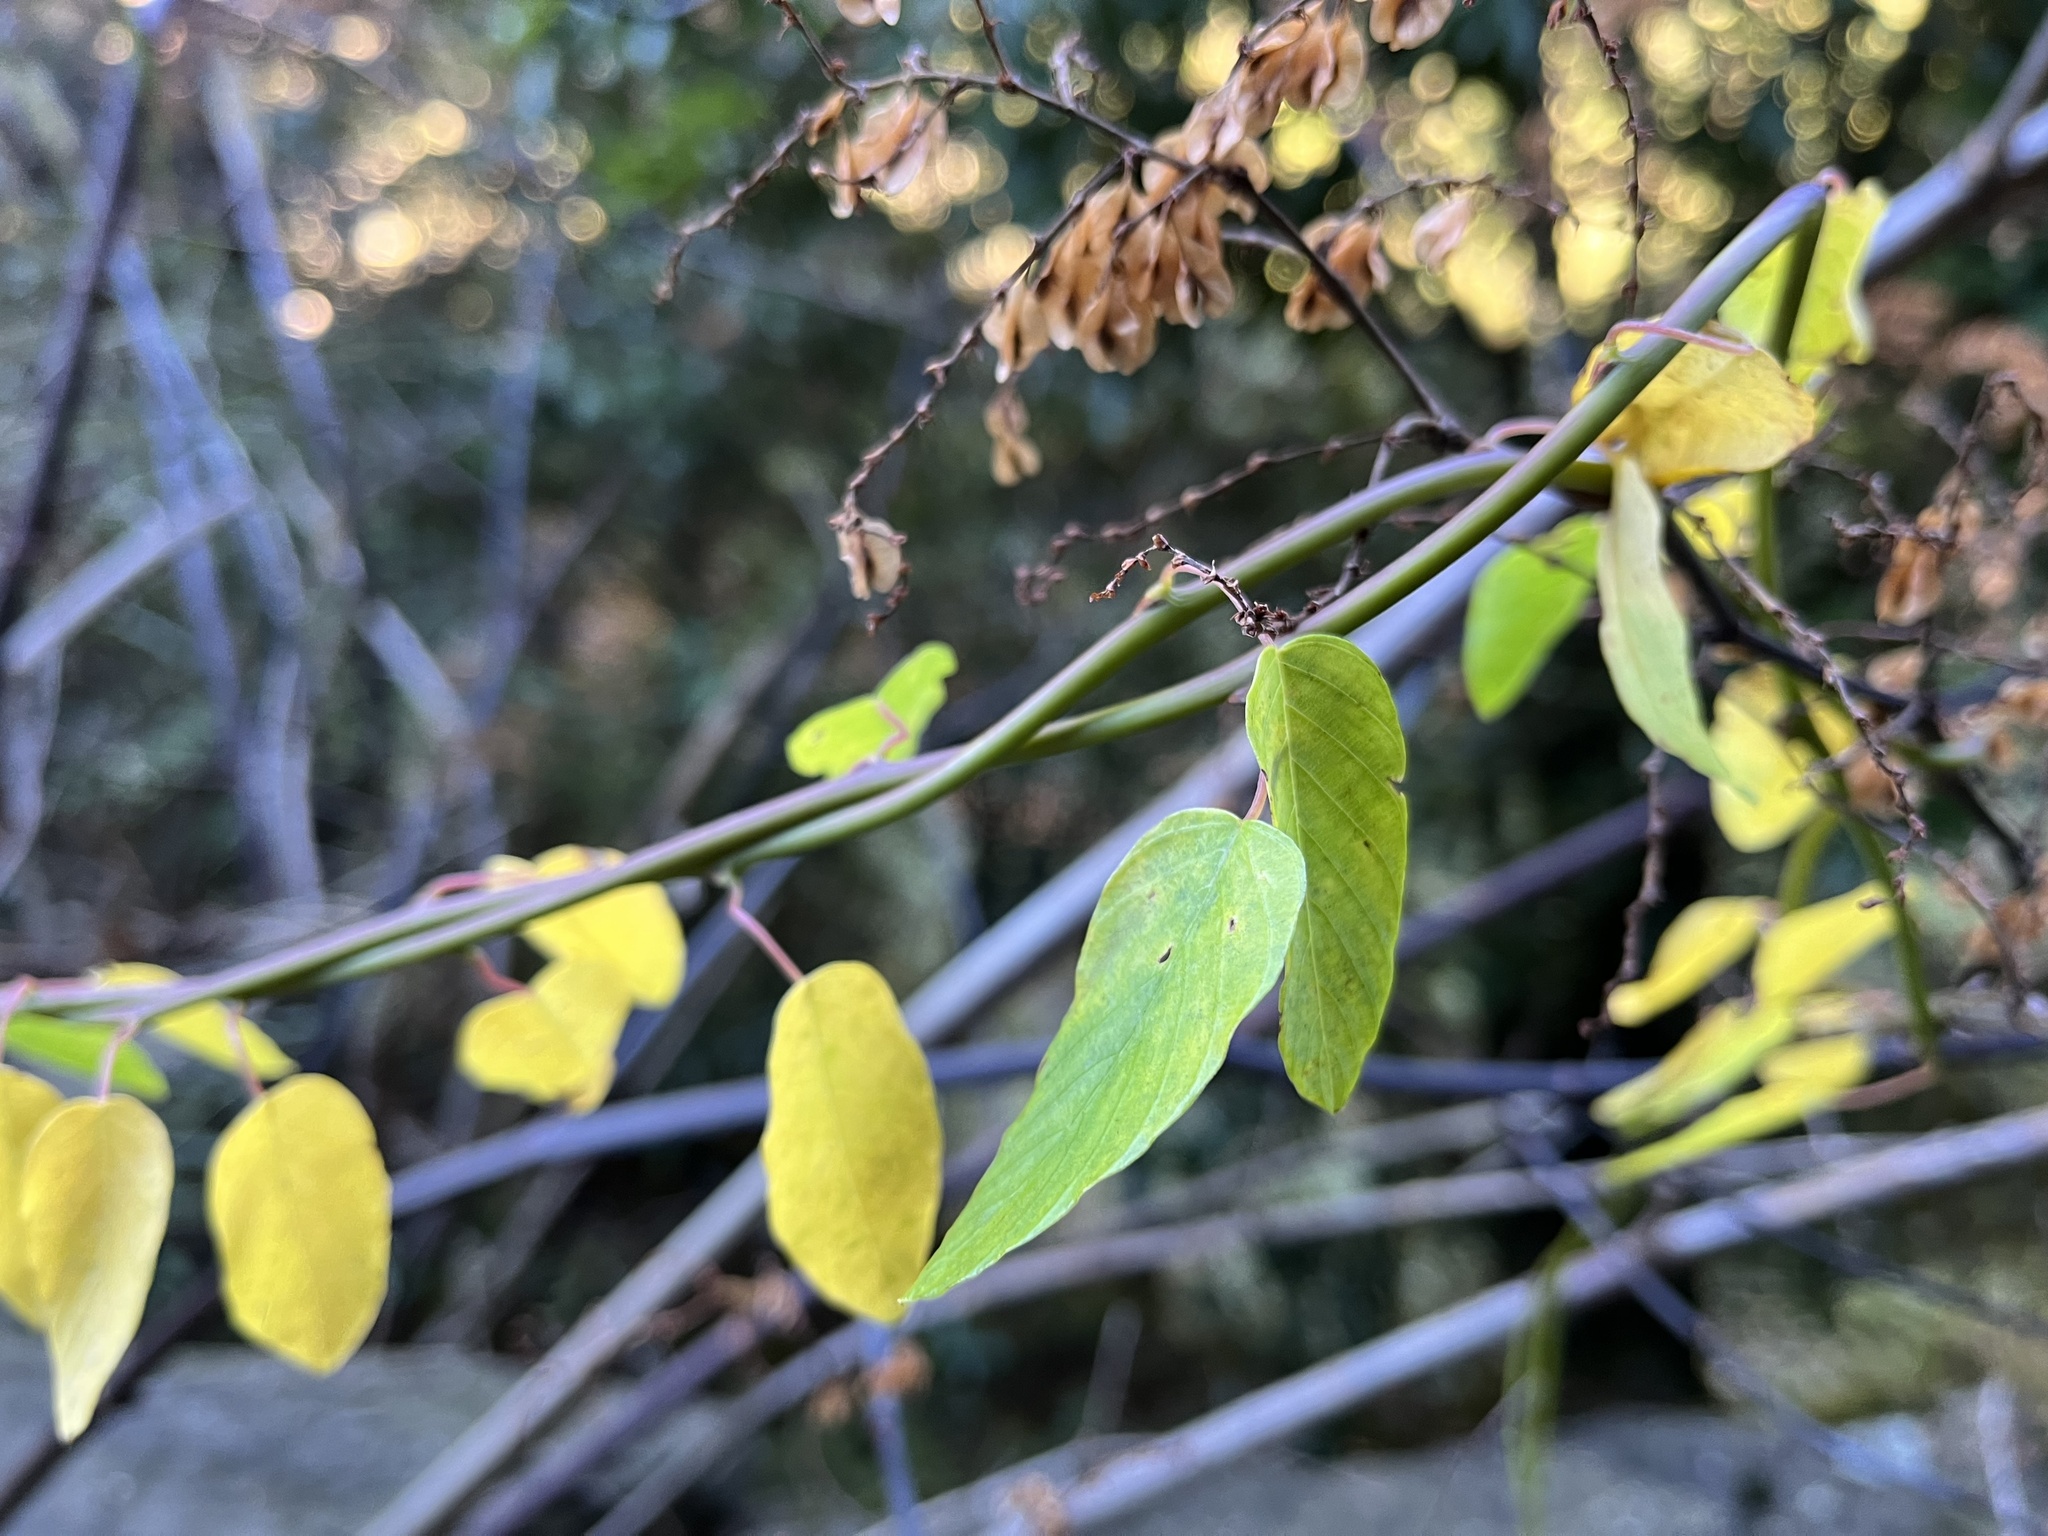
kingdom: Plantae
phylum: Tracheophyta
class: Magnoliopsida
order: Rosales
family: Rhamnaceae
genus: Berchemia
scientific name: Berchemia formosana
